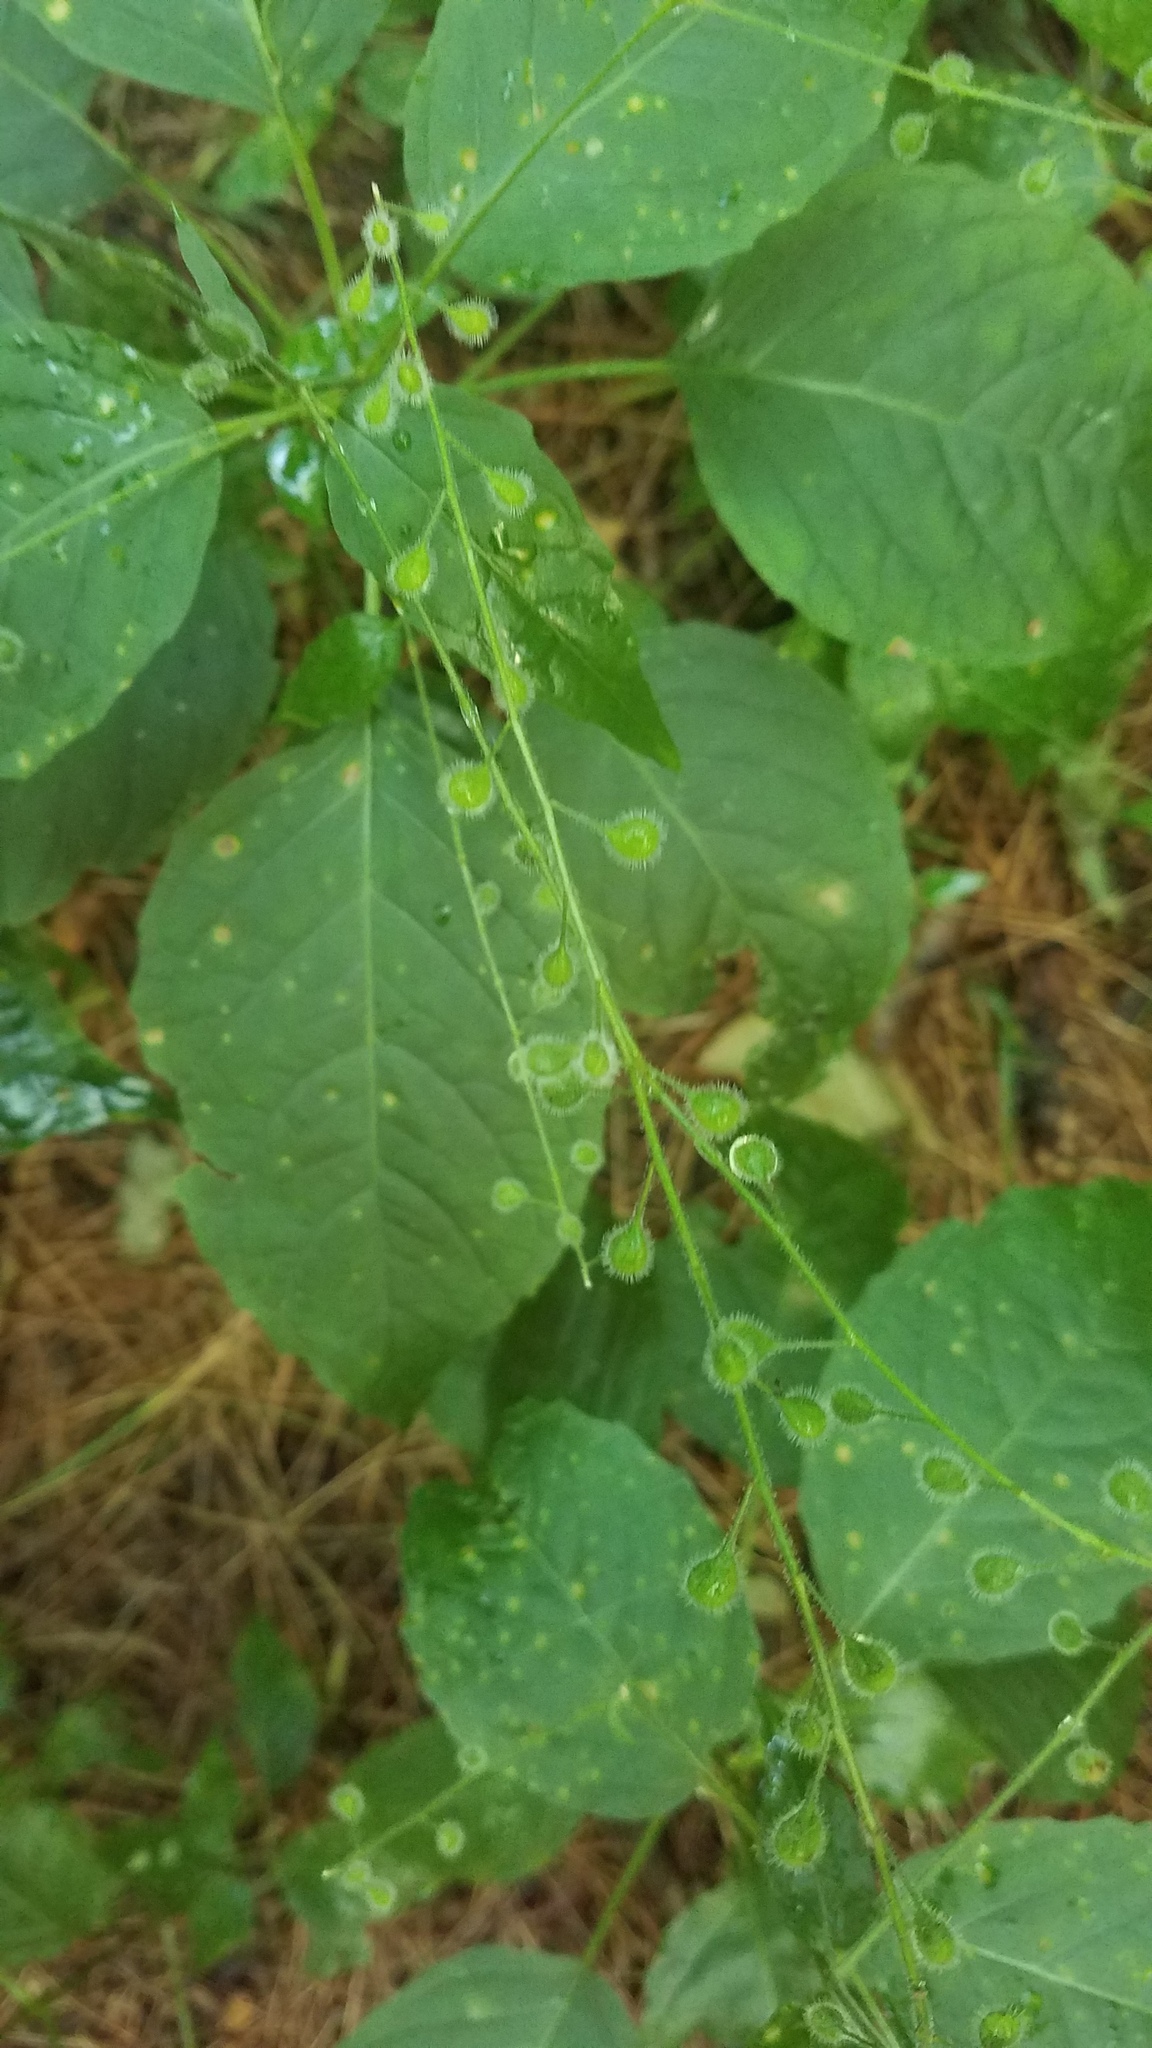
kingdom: Plantae
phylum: Tracheophyta
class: Magnoliopsida
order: Myrtales
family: Onagraceae
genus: Circaea
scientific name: Circaea canadensis
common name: Broad-leaved enchanter's nightshade
